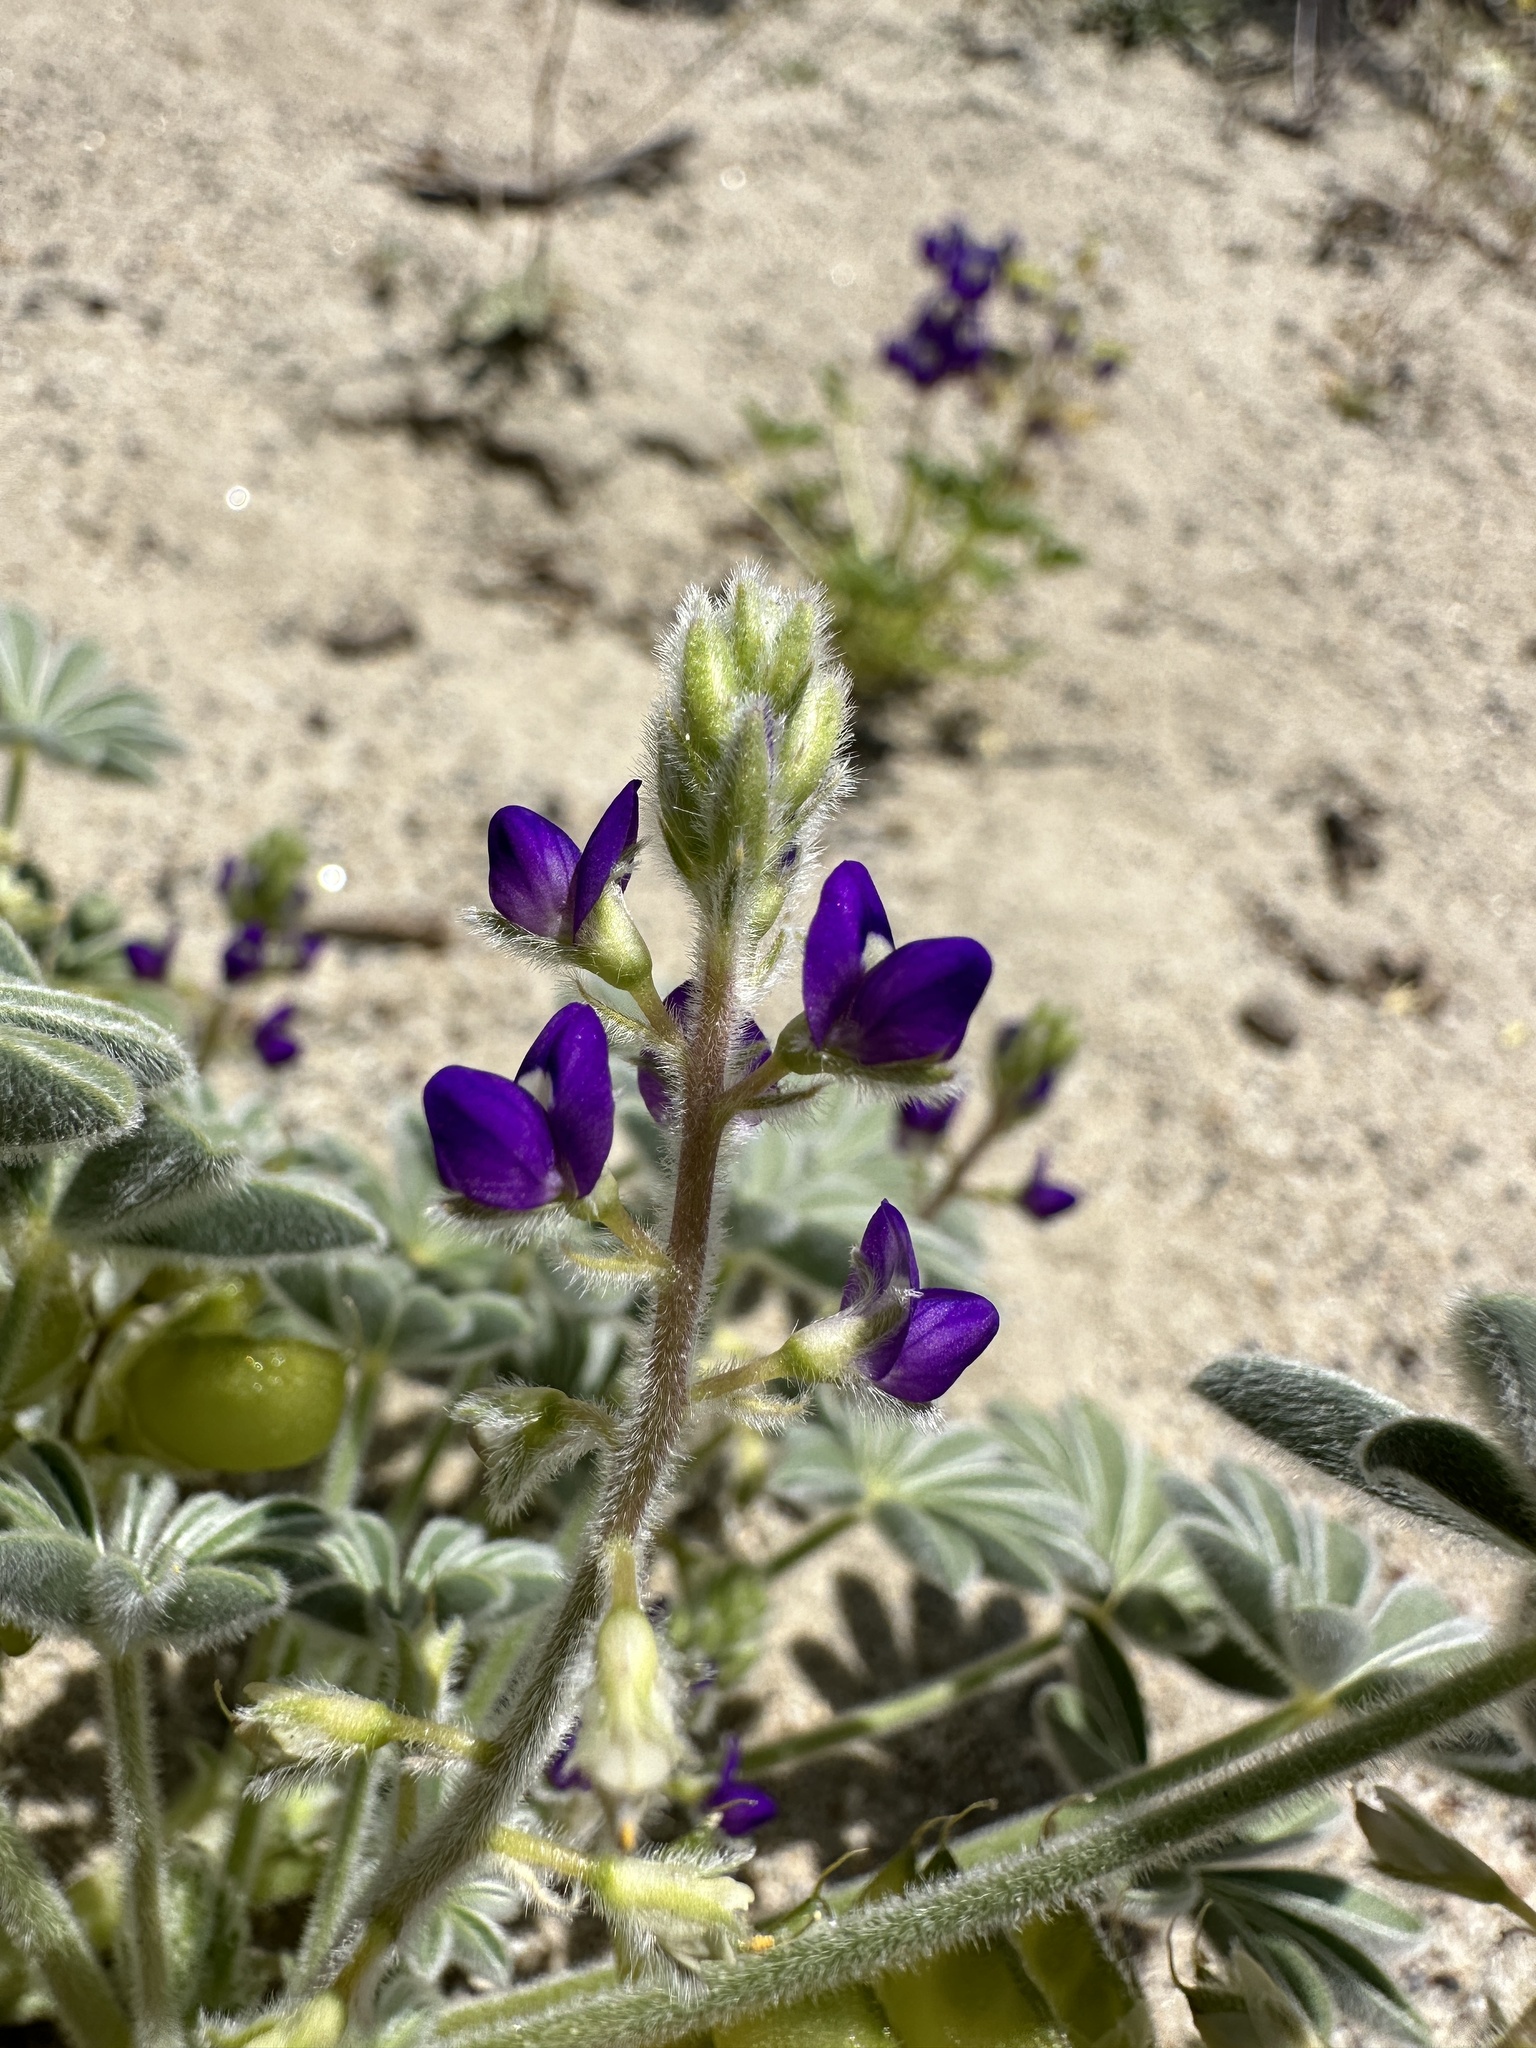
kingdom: Plantae
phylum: Tracheophyta
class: Magnoliopsida
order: Fabales
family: Fabaceae
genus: Lupinus
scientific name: Lupinus shockleyi
